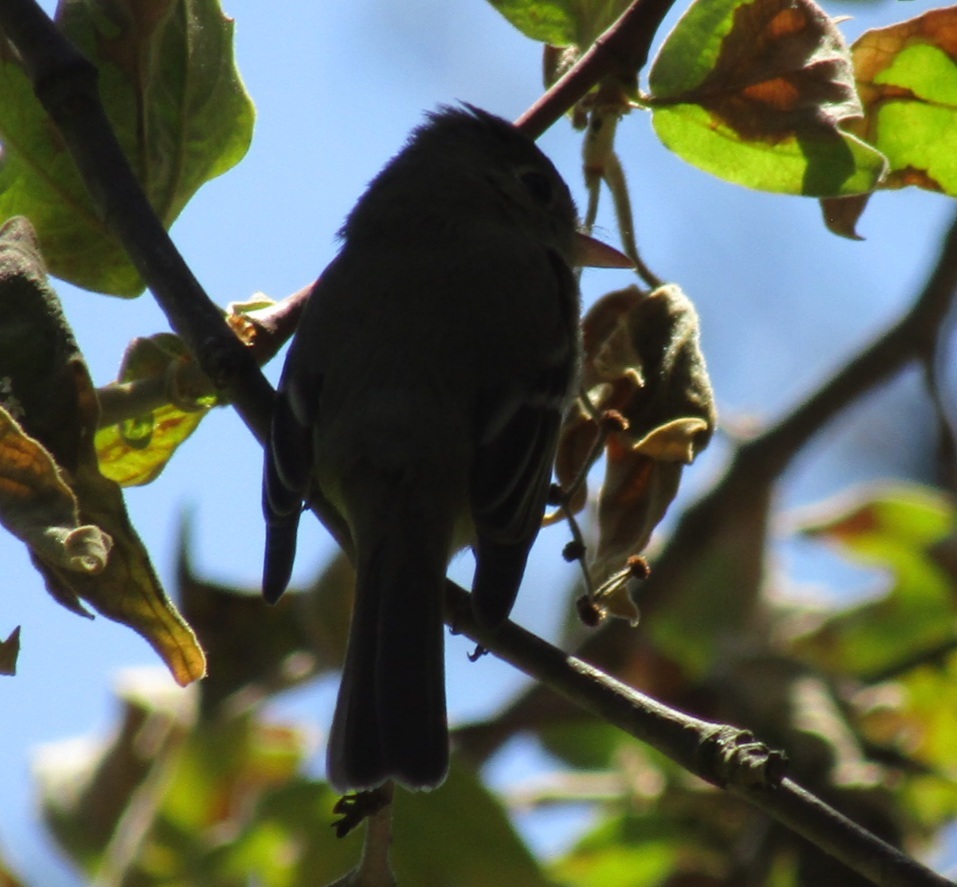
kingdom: Animalia
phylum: Chordata
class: Aves
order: Passeriformes
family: Tyrannidae
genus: Empidonax
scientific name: Empidonax difficilis
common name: Pacific-slope flycatcher
